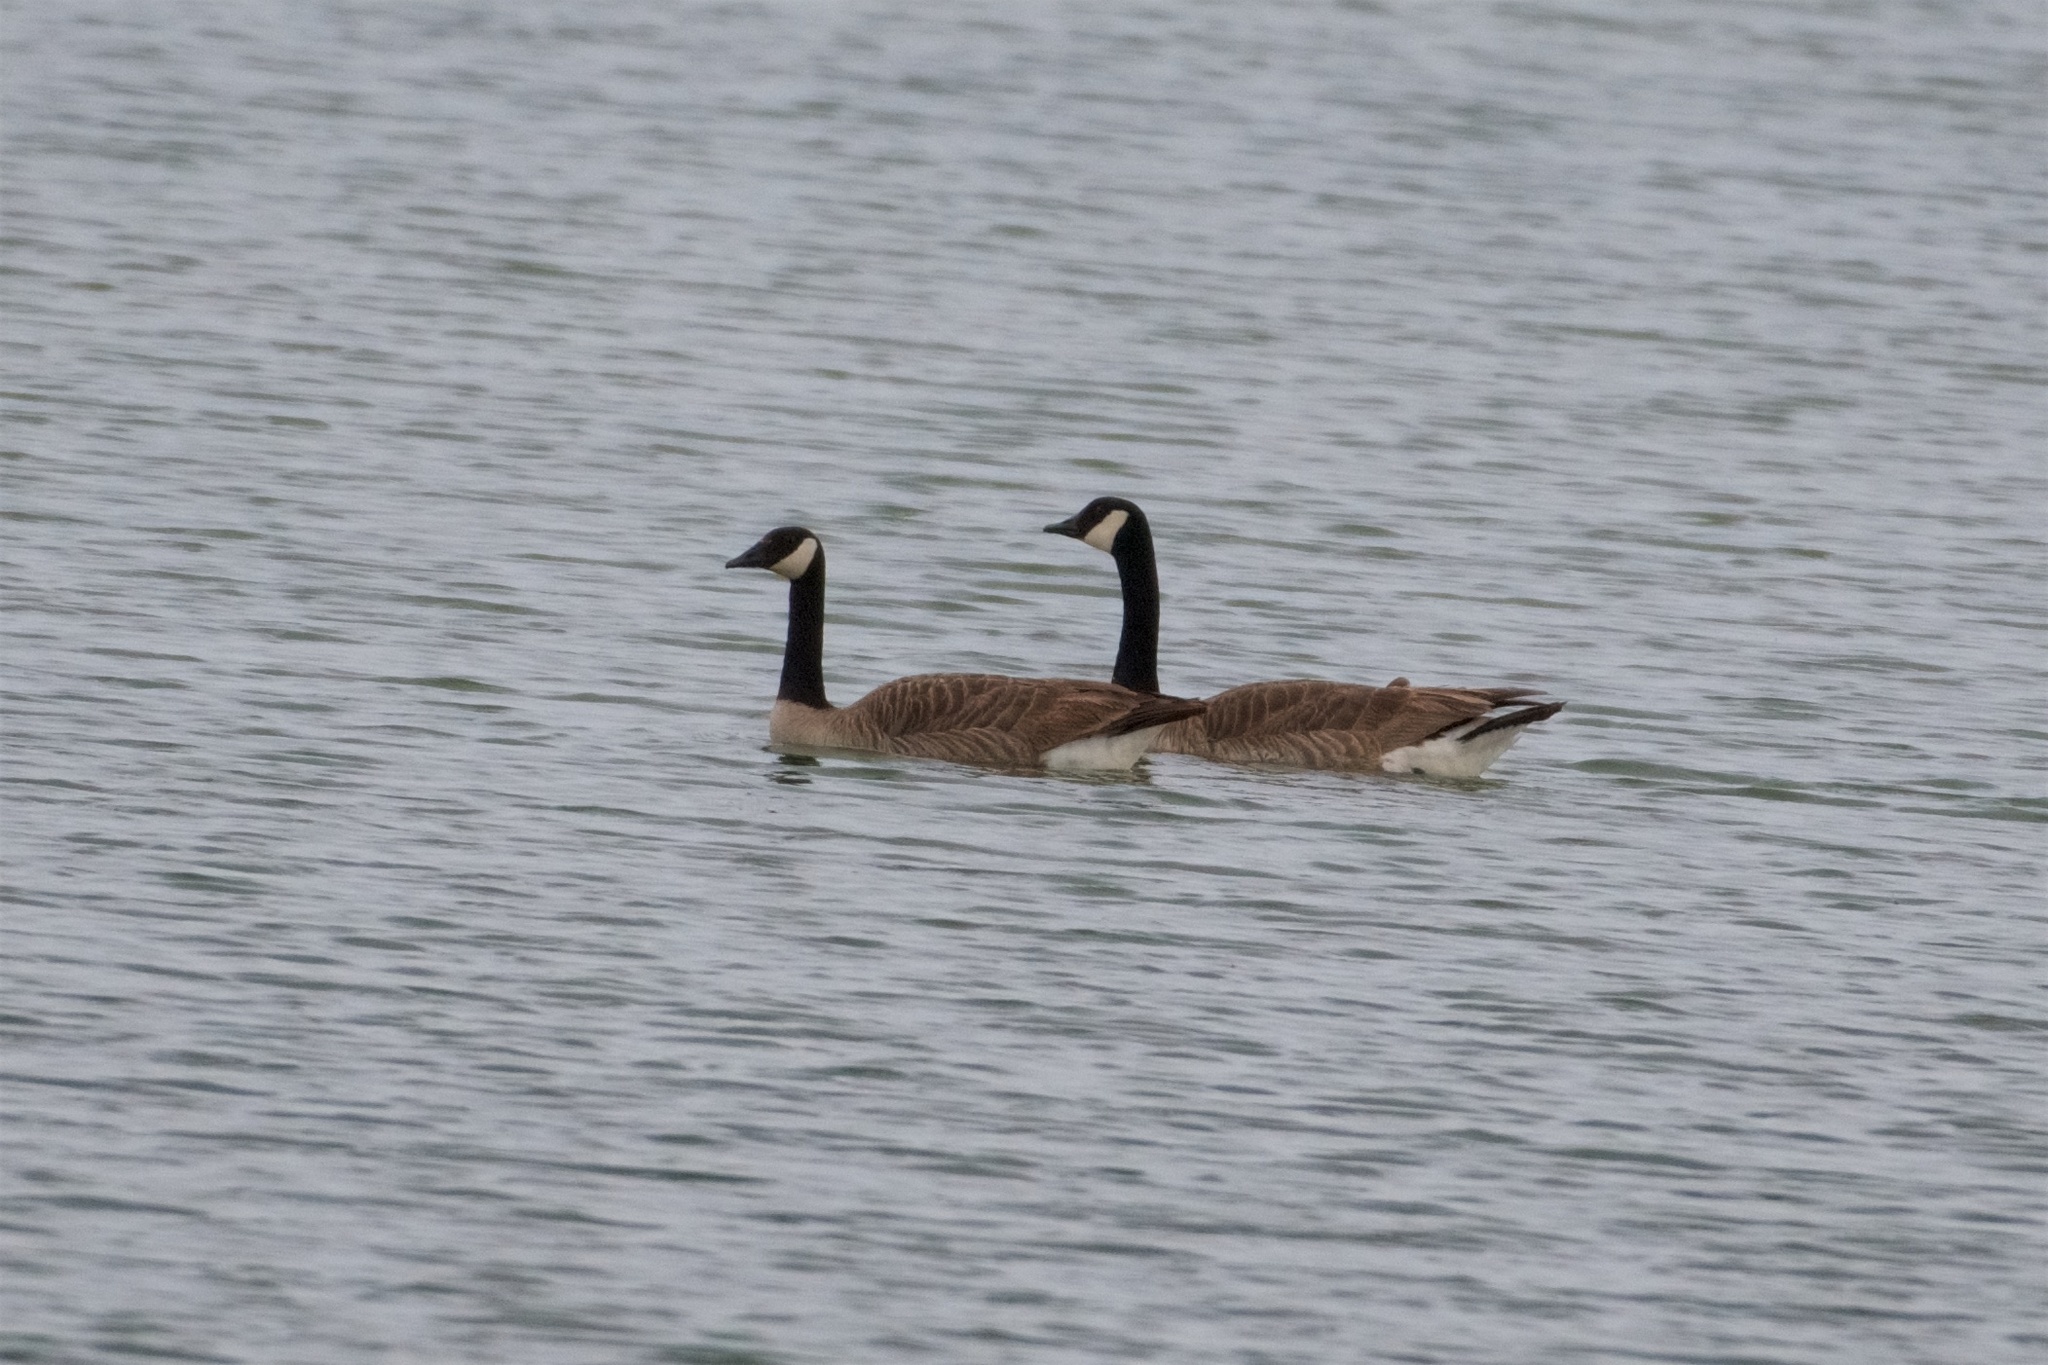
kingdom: Animalia
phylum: Chordata
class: Aves
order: Anseriformes
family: Anatidae
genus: Branta
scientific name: Branta canadensis
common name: Canada goose
